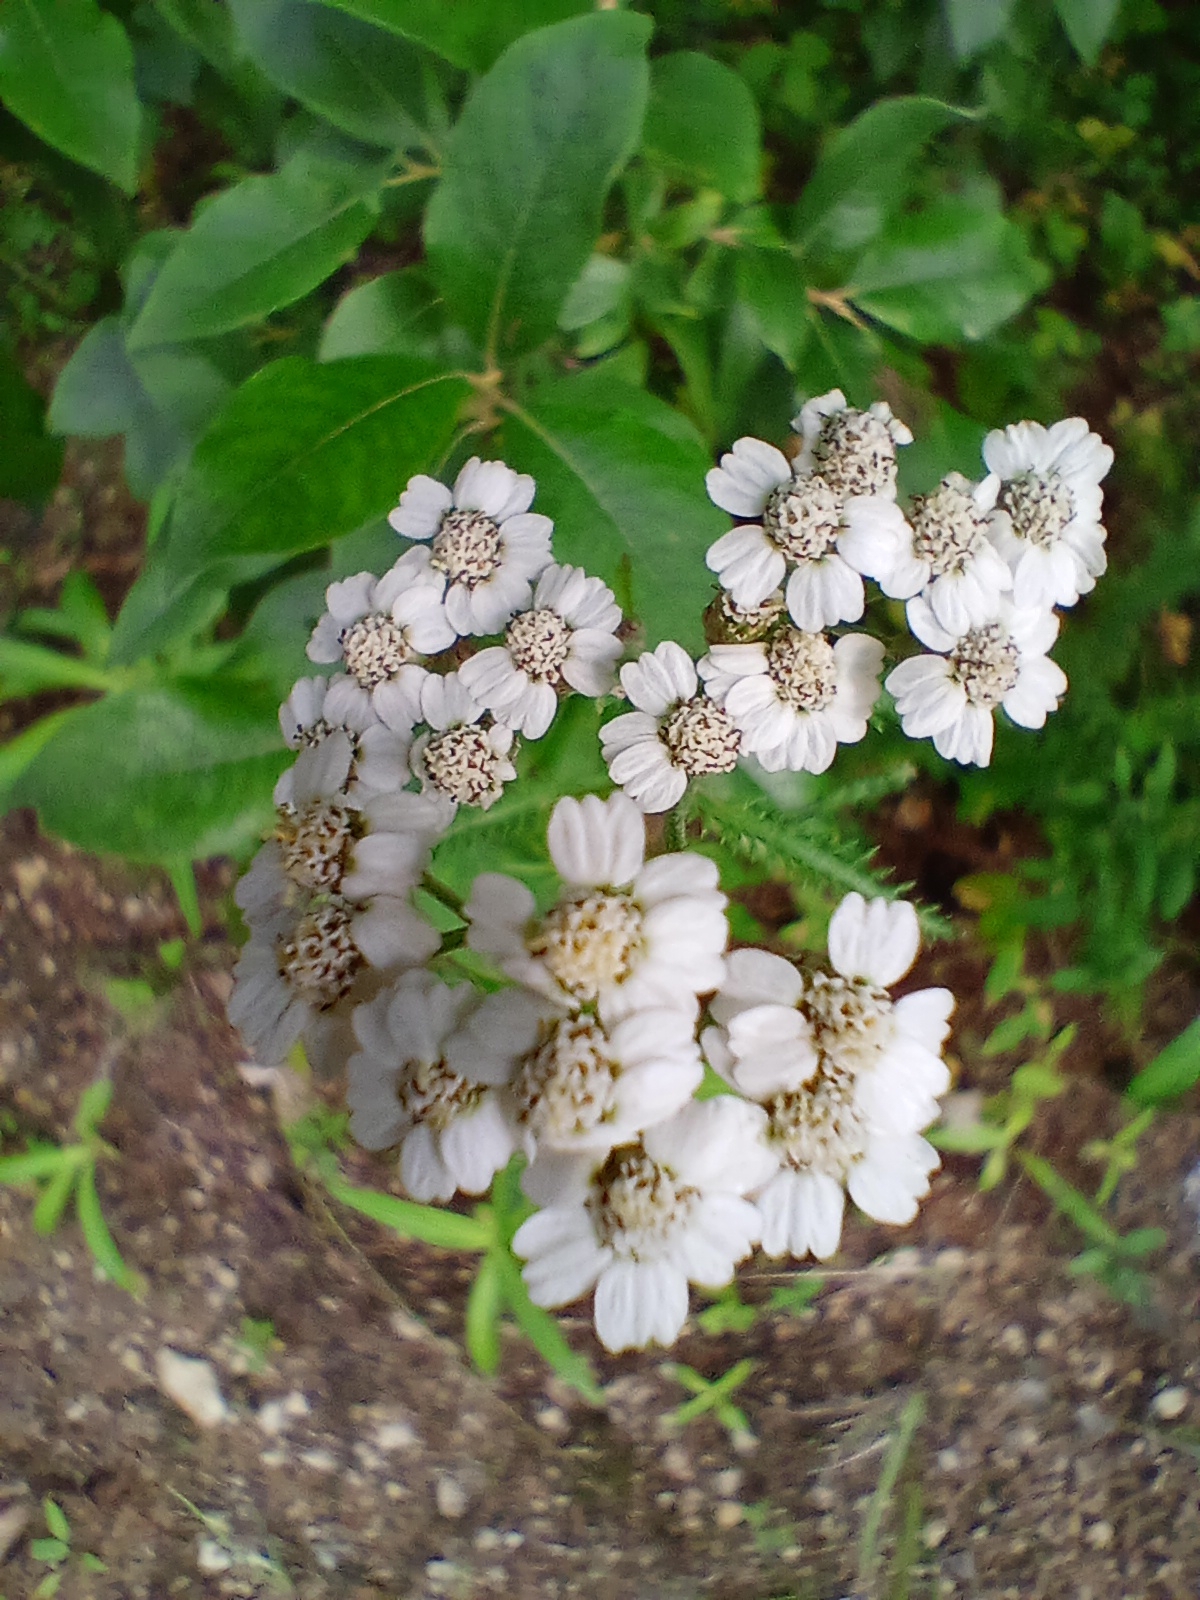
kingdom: Plantae
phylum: Tracheophyta
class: Magnoliopsida
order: Asterales
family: Asteraceae
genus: Achillea
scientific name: Achillea alpina
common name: Siberian yarrow
